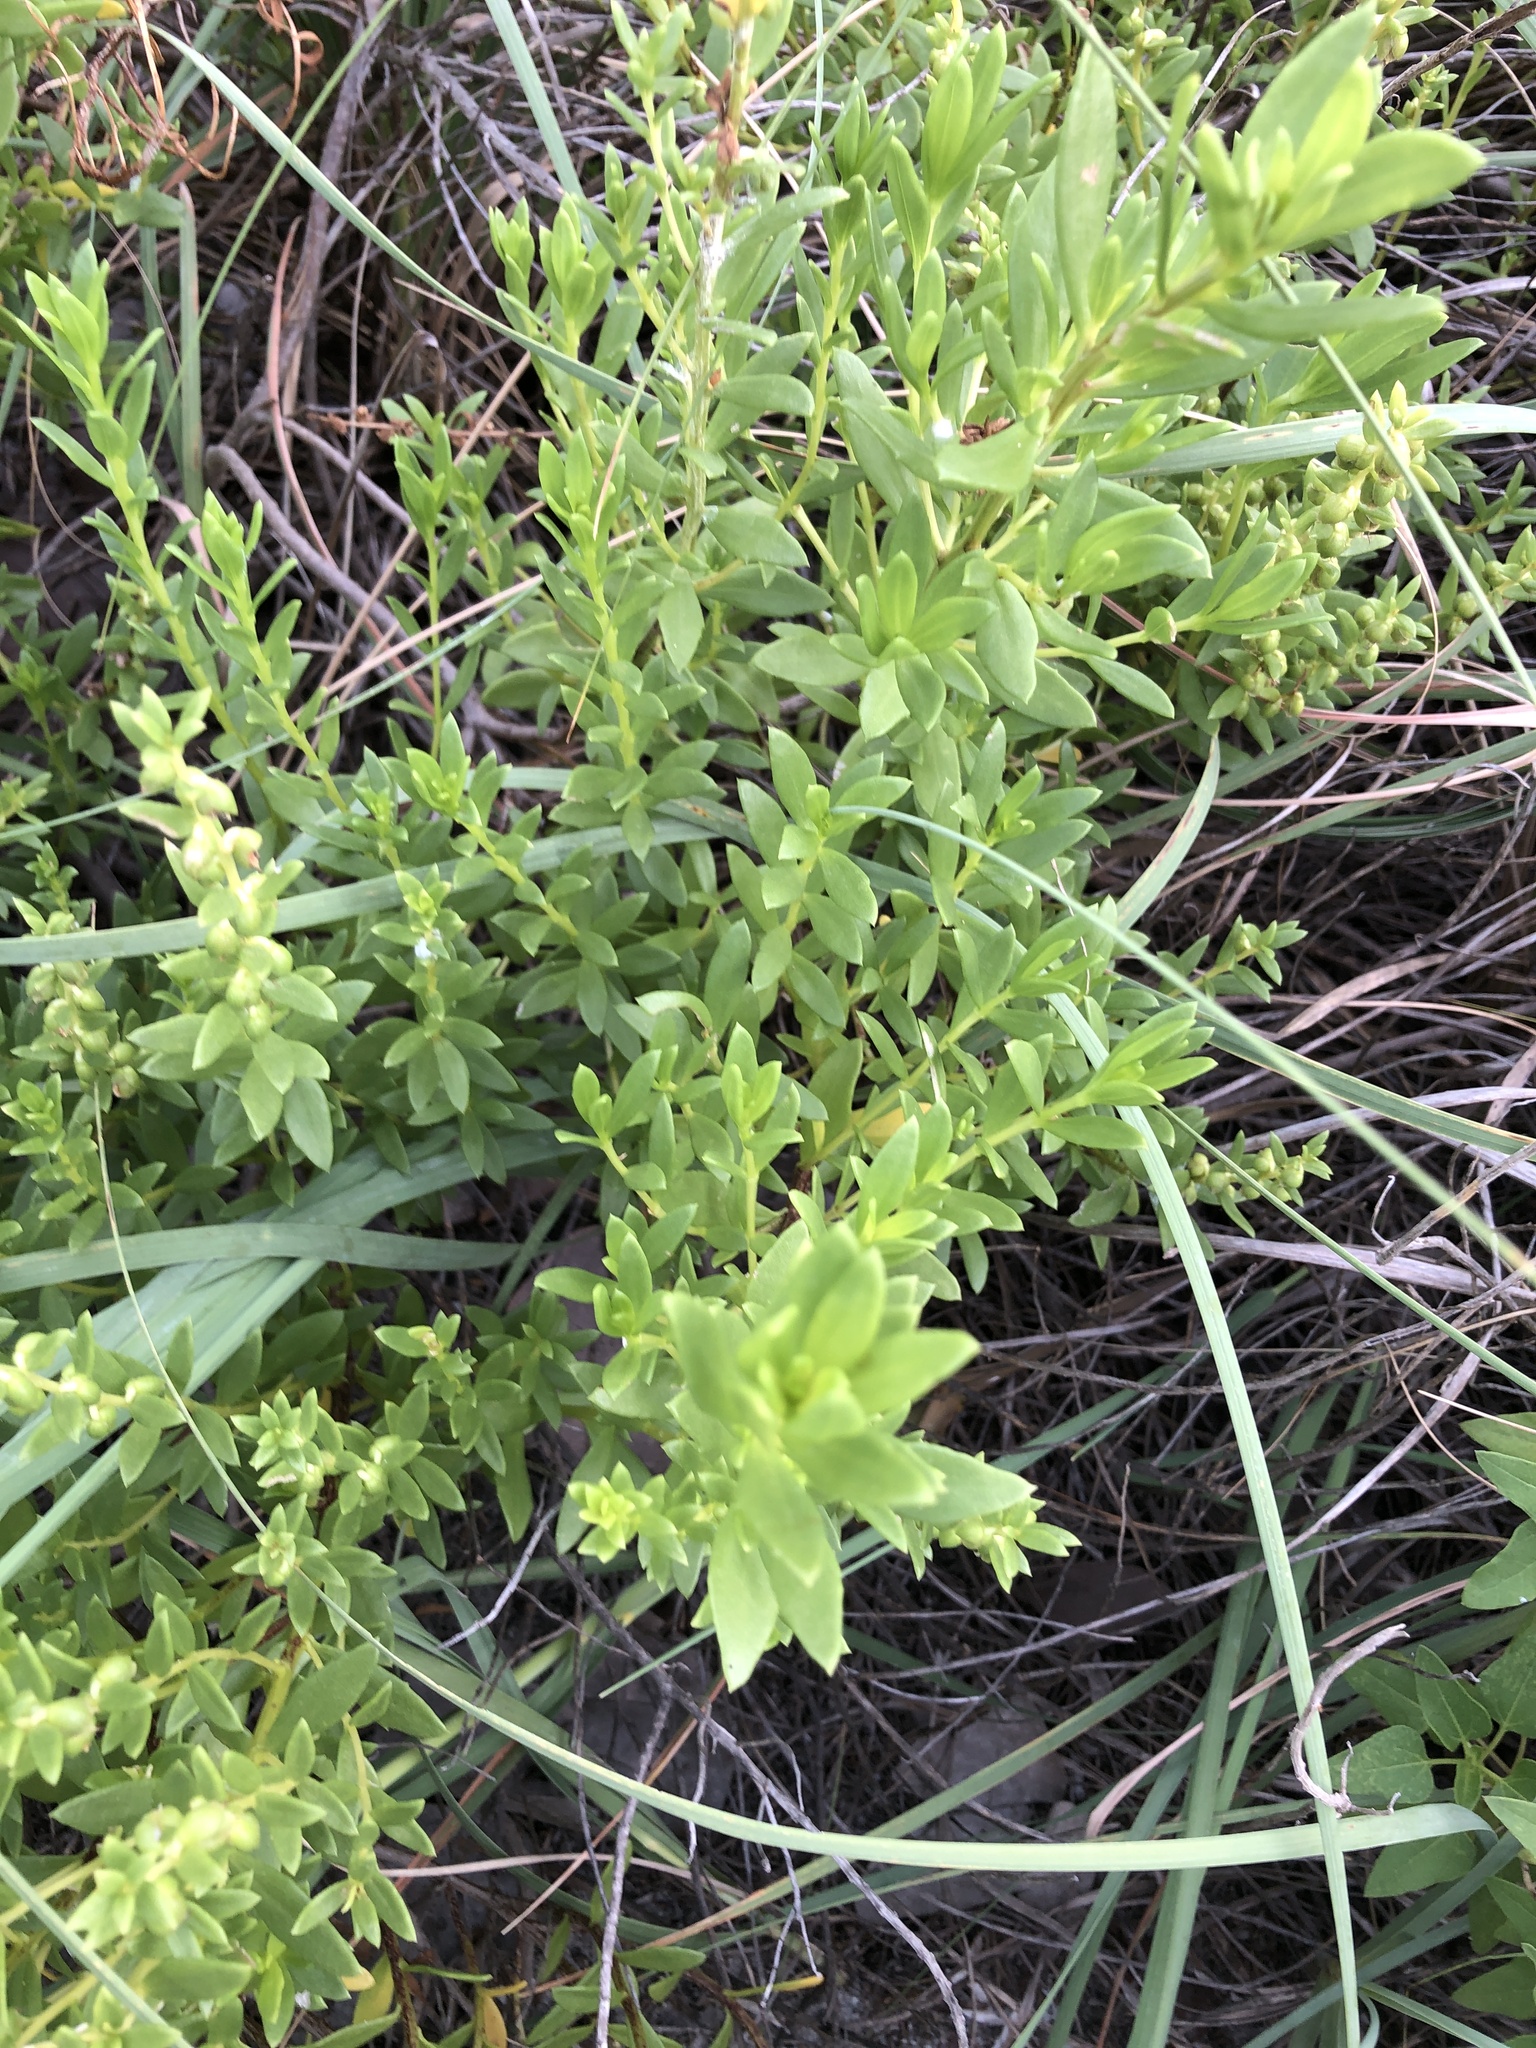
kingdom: Plantae
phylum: Tracheophyta
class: Magnoliopsida
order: Asterales
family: Asteraceae
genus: Iva
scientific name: Iva imbricata
